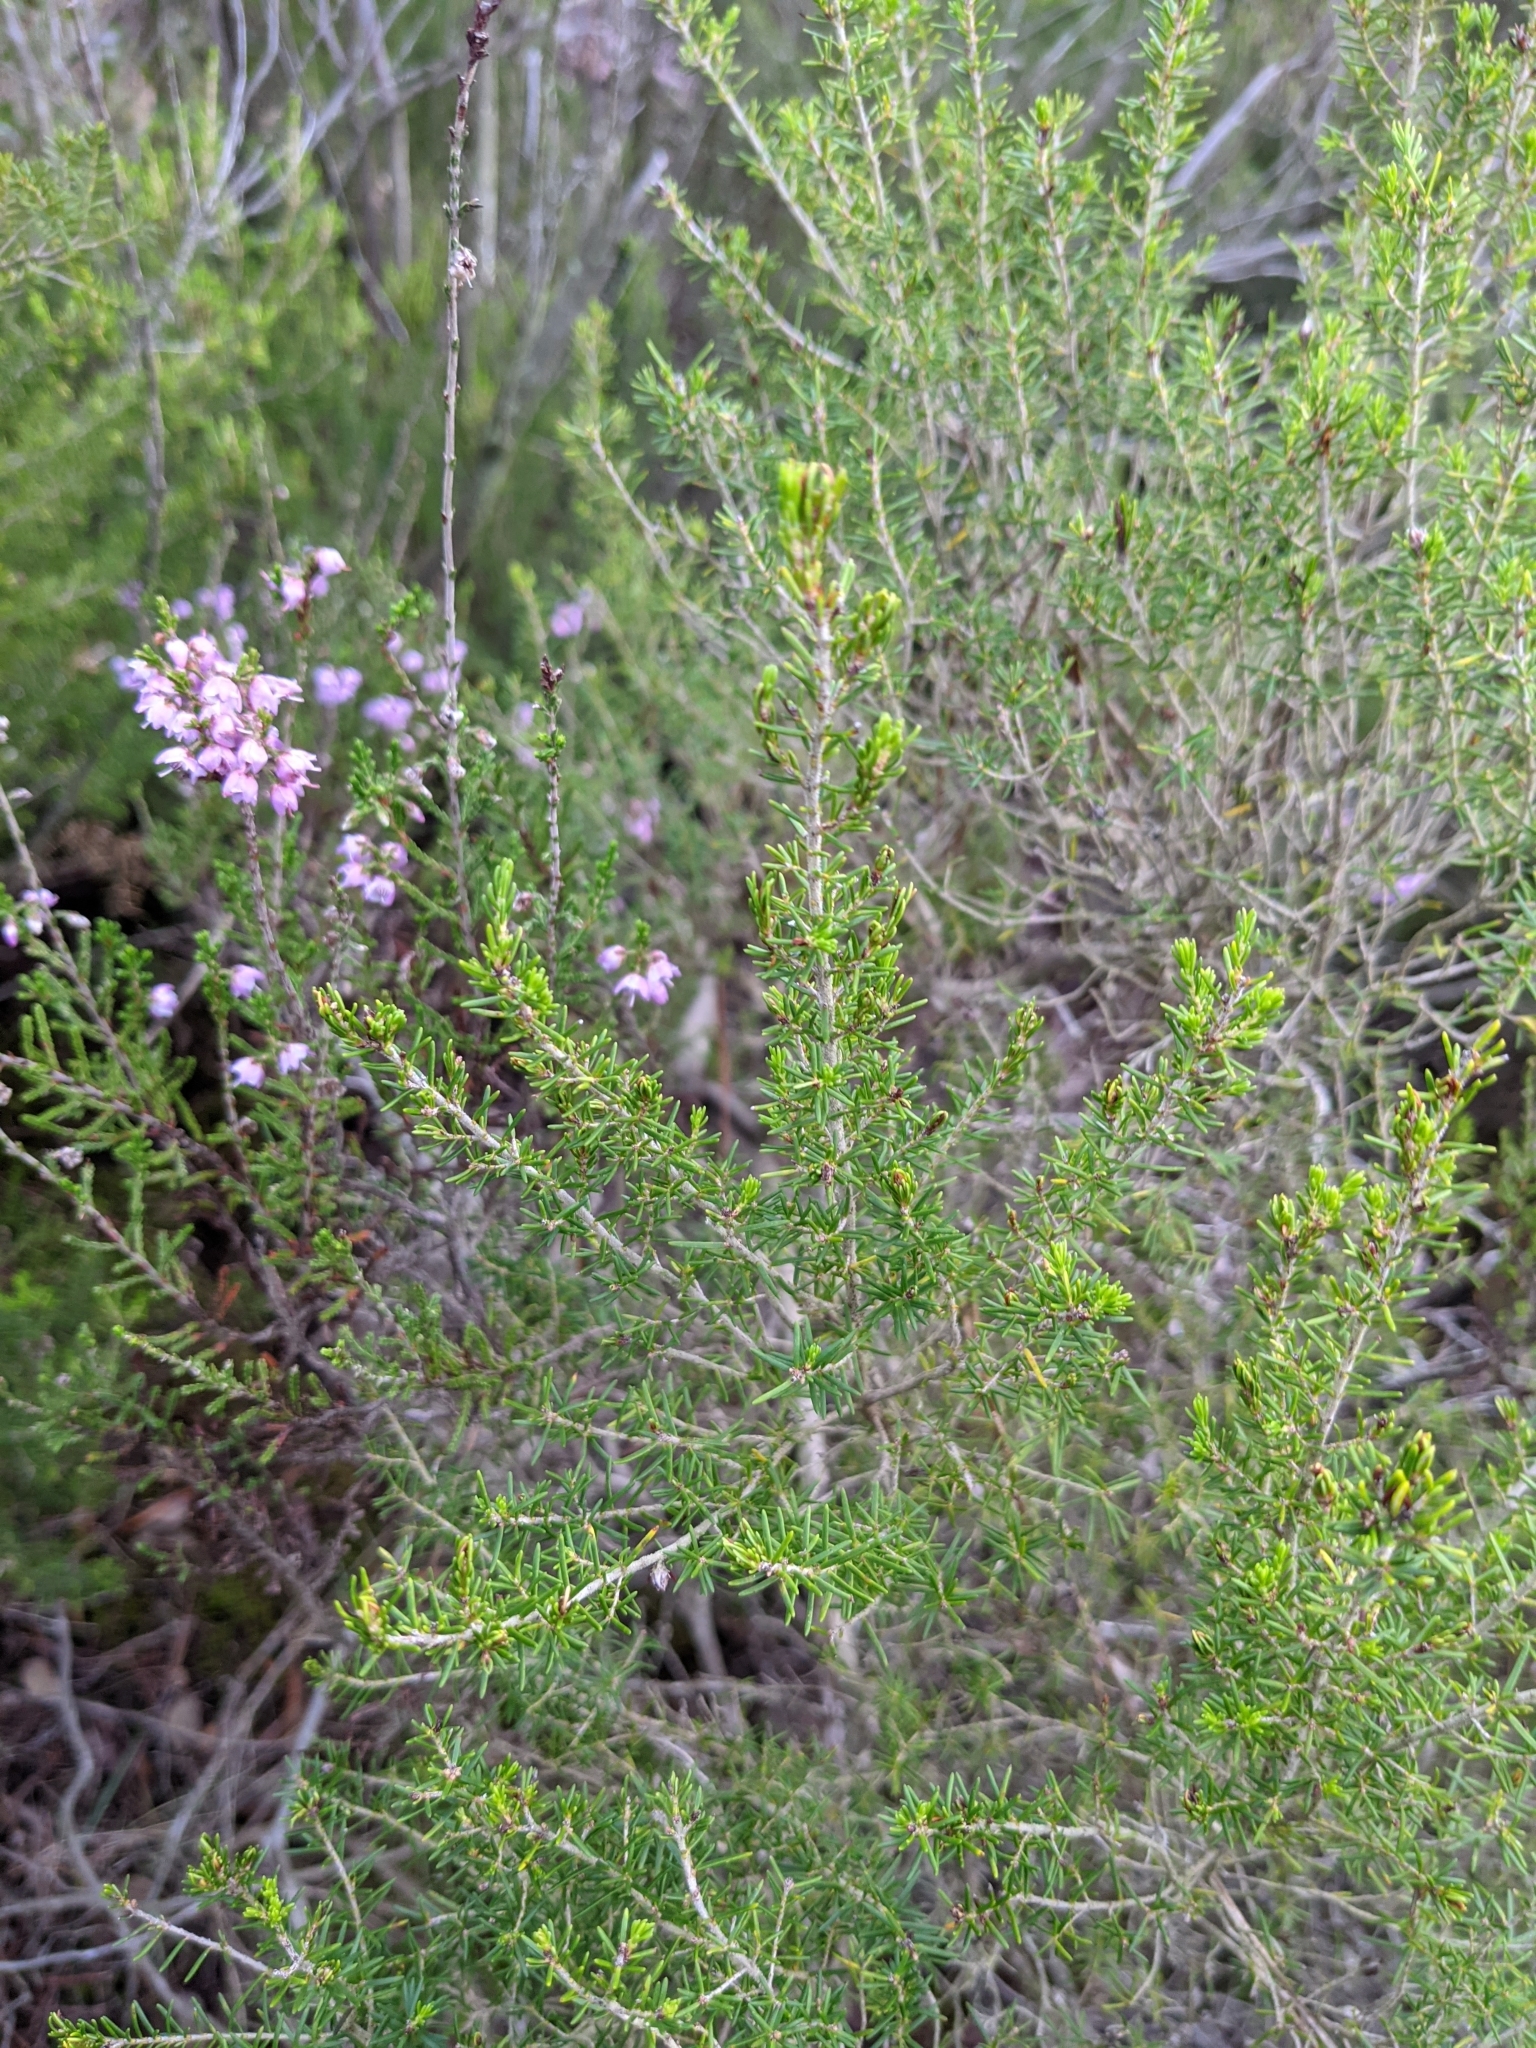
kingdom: Plantae
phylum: Tracheophyta
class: Magnoliopsida
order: Ericales
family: Ericaceae
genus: Calluna
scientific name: Calluna vulgaris
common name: Heather
